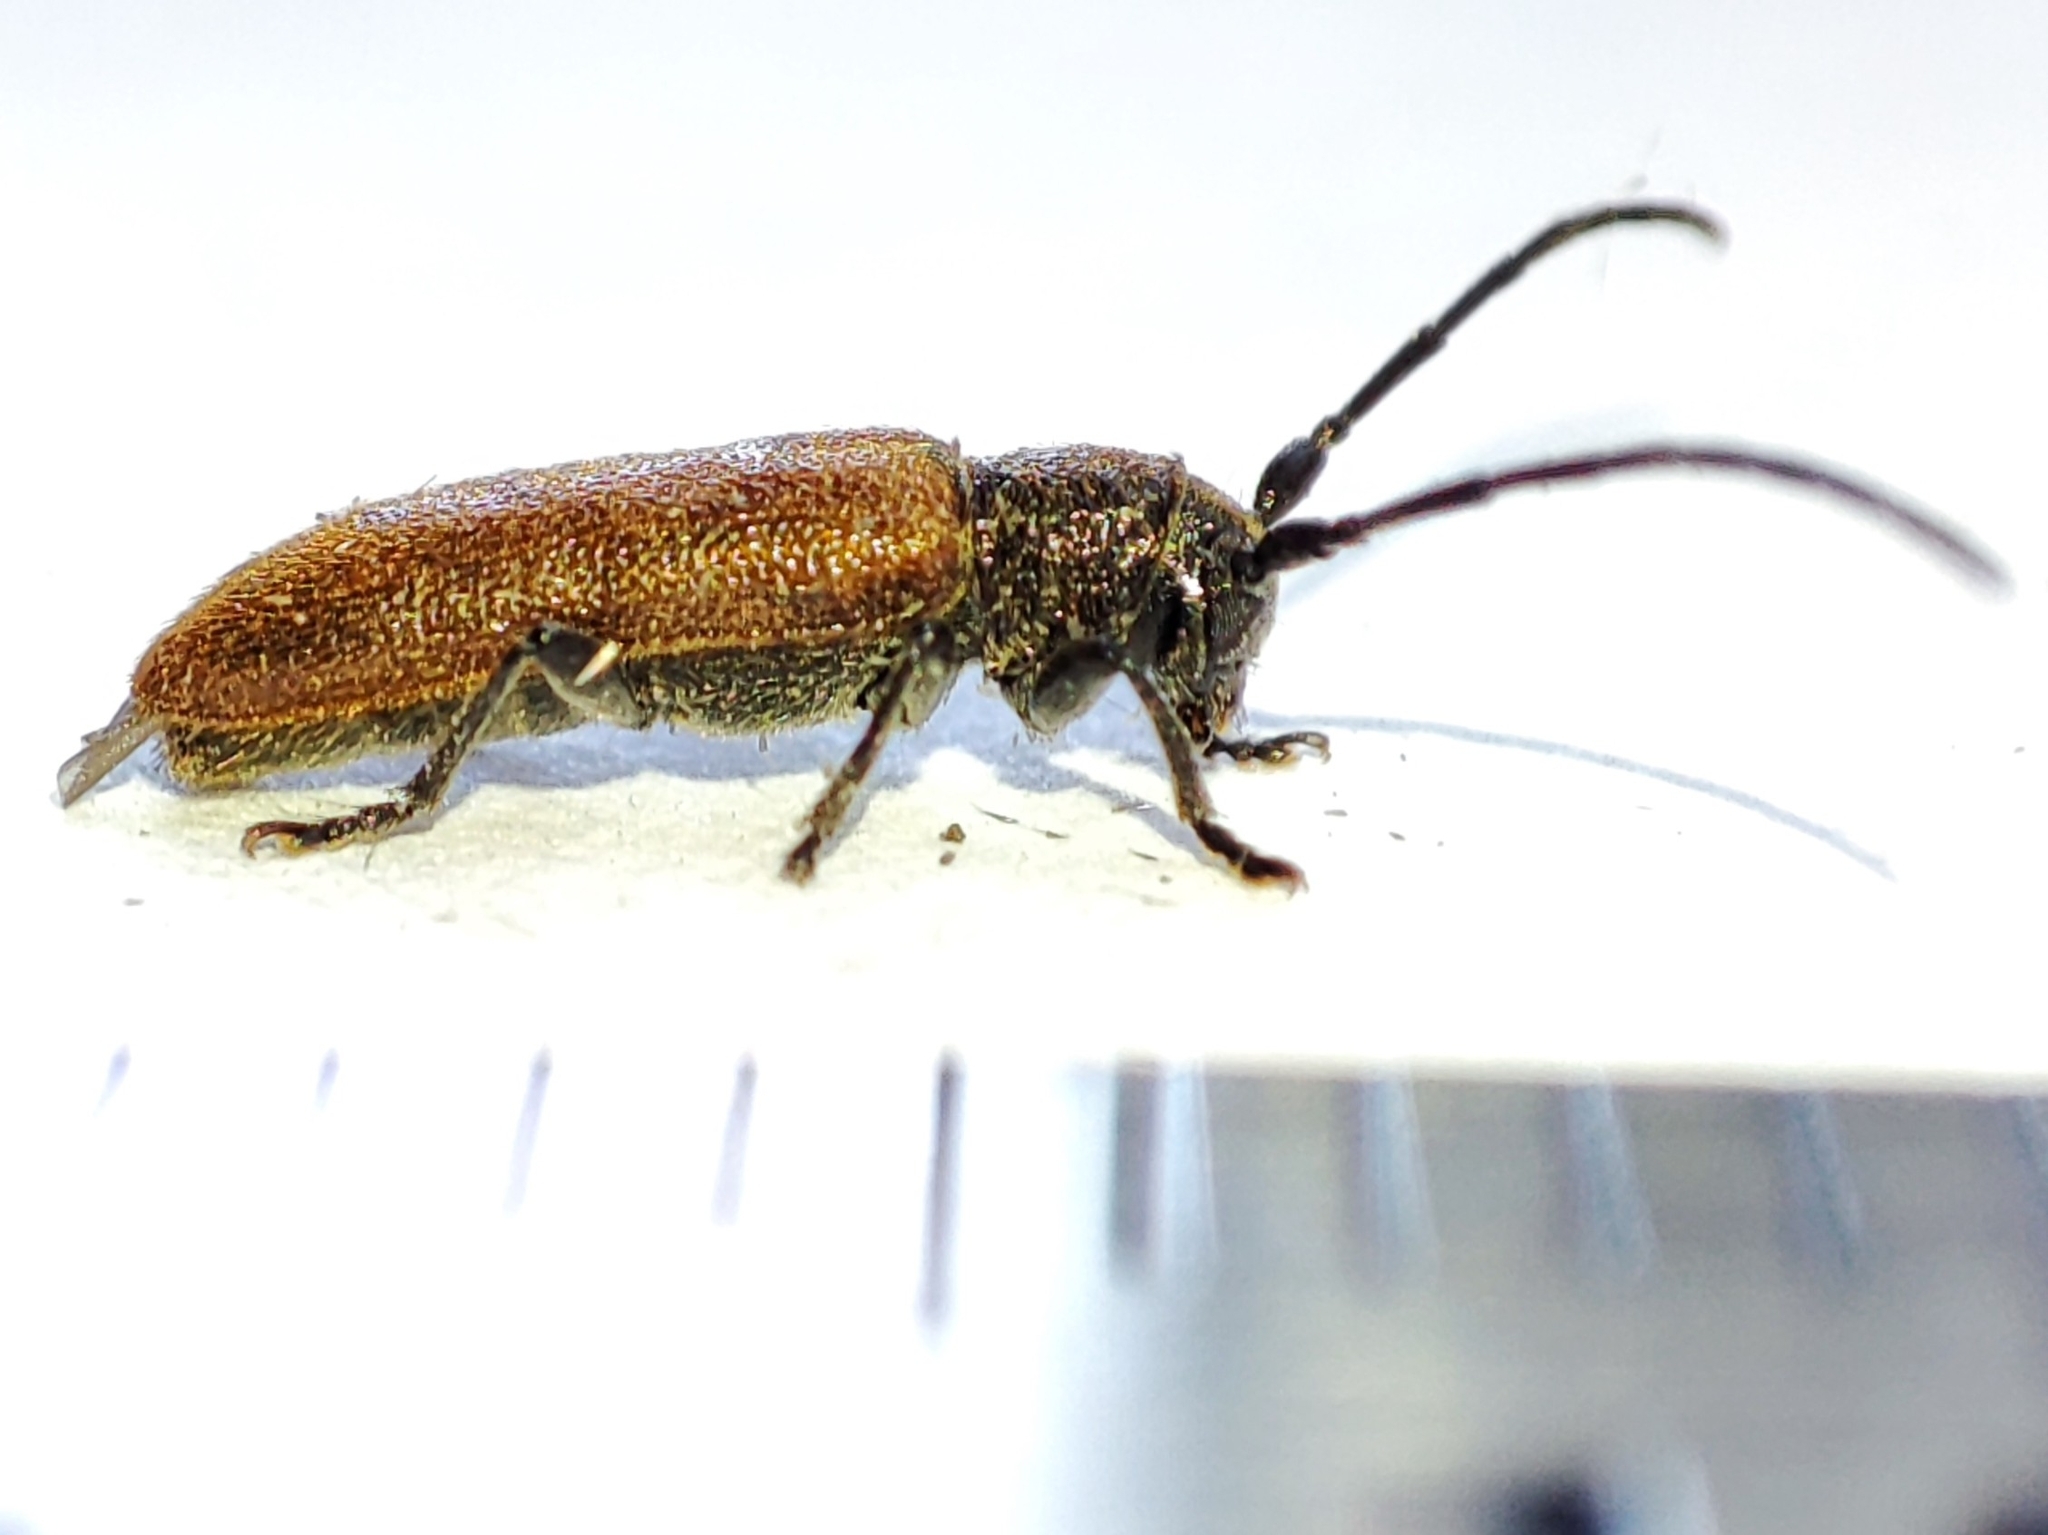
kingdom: Animalia
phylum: Arthropoda
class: Insecta
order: Coleoptera
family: Cerambycidae
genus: Anaesthetis
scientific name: Anaesthetis testacea
